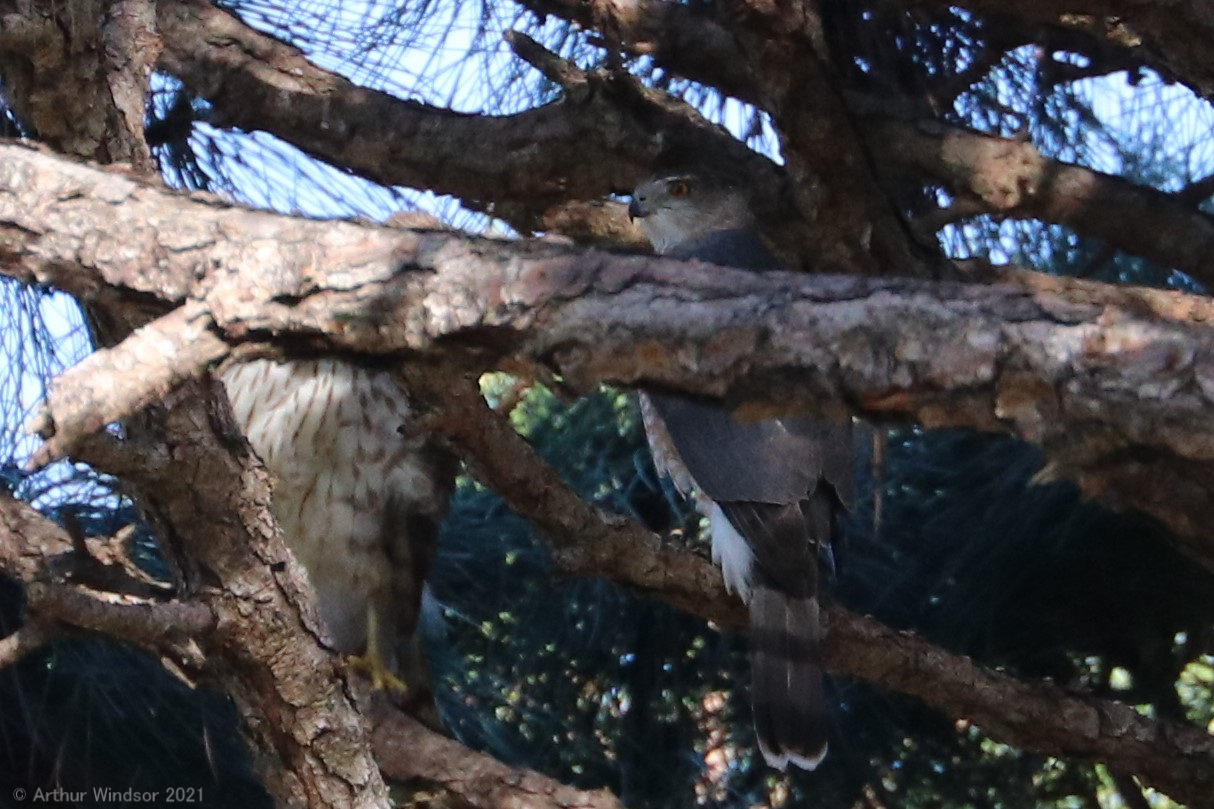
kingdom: Animalia
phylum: Chordata
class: Aves
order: Accipitriformes
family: Accipitridae
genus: Accipiter
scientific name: Accipiter cooperii
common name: Cooper's hawk
